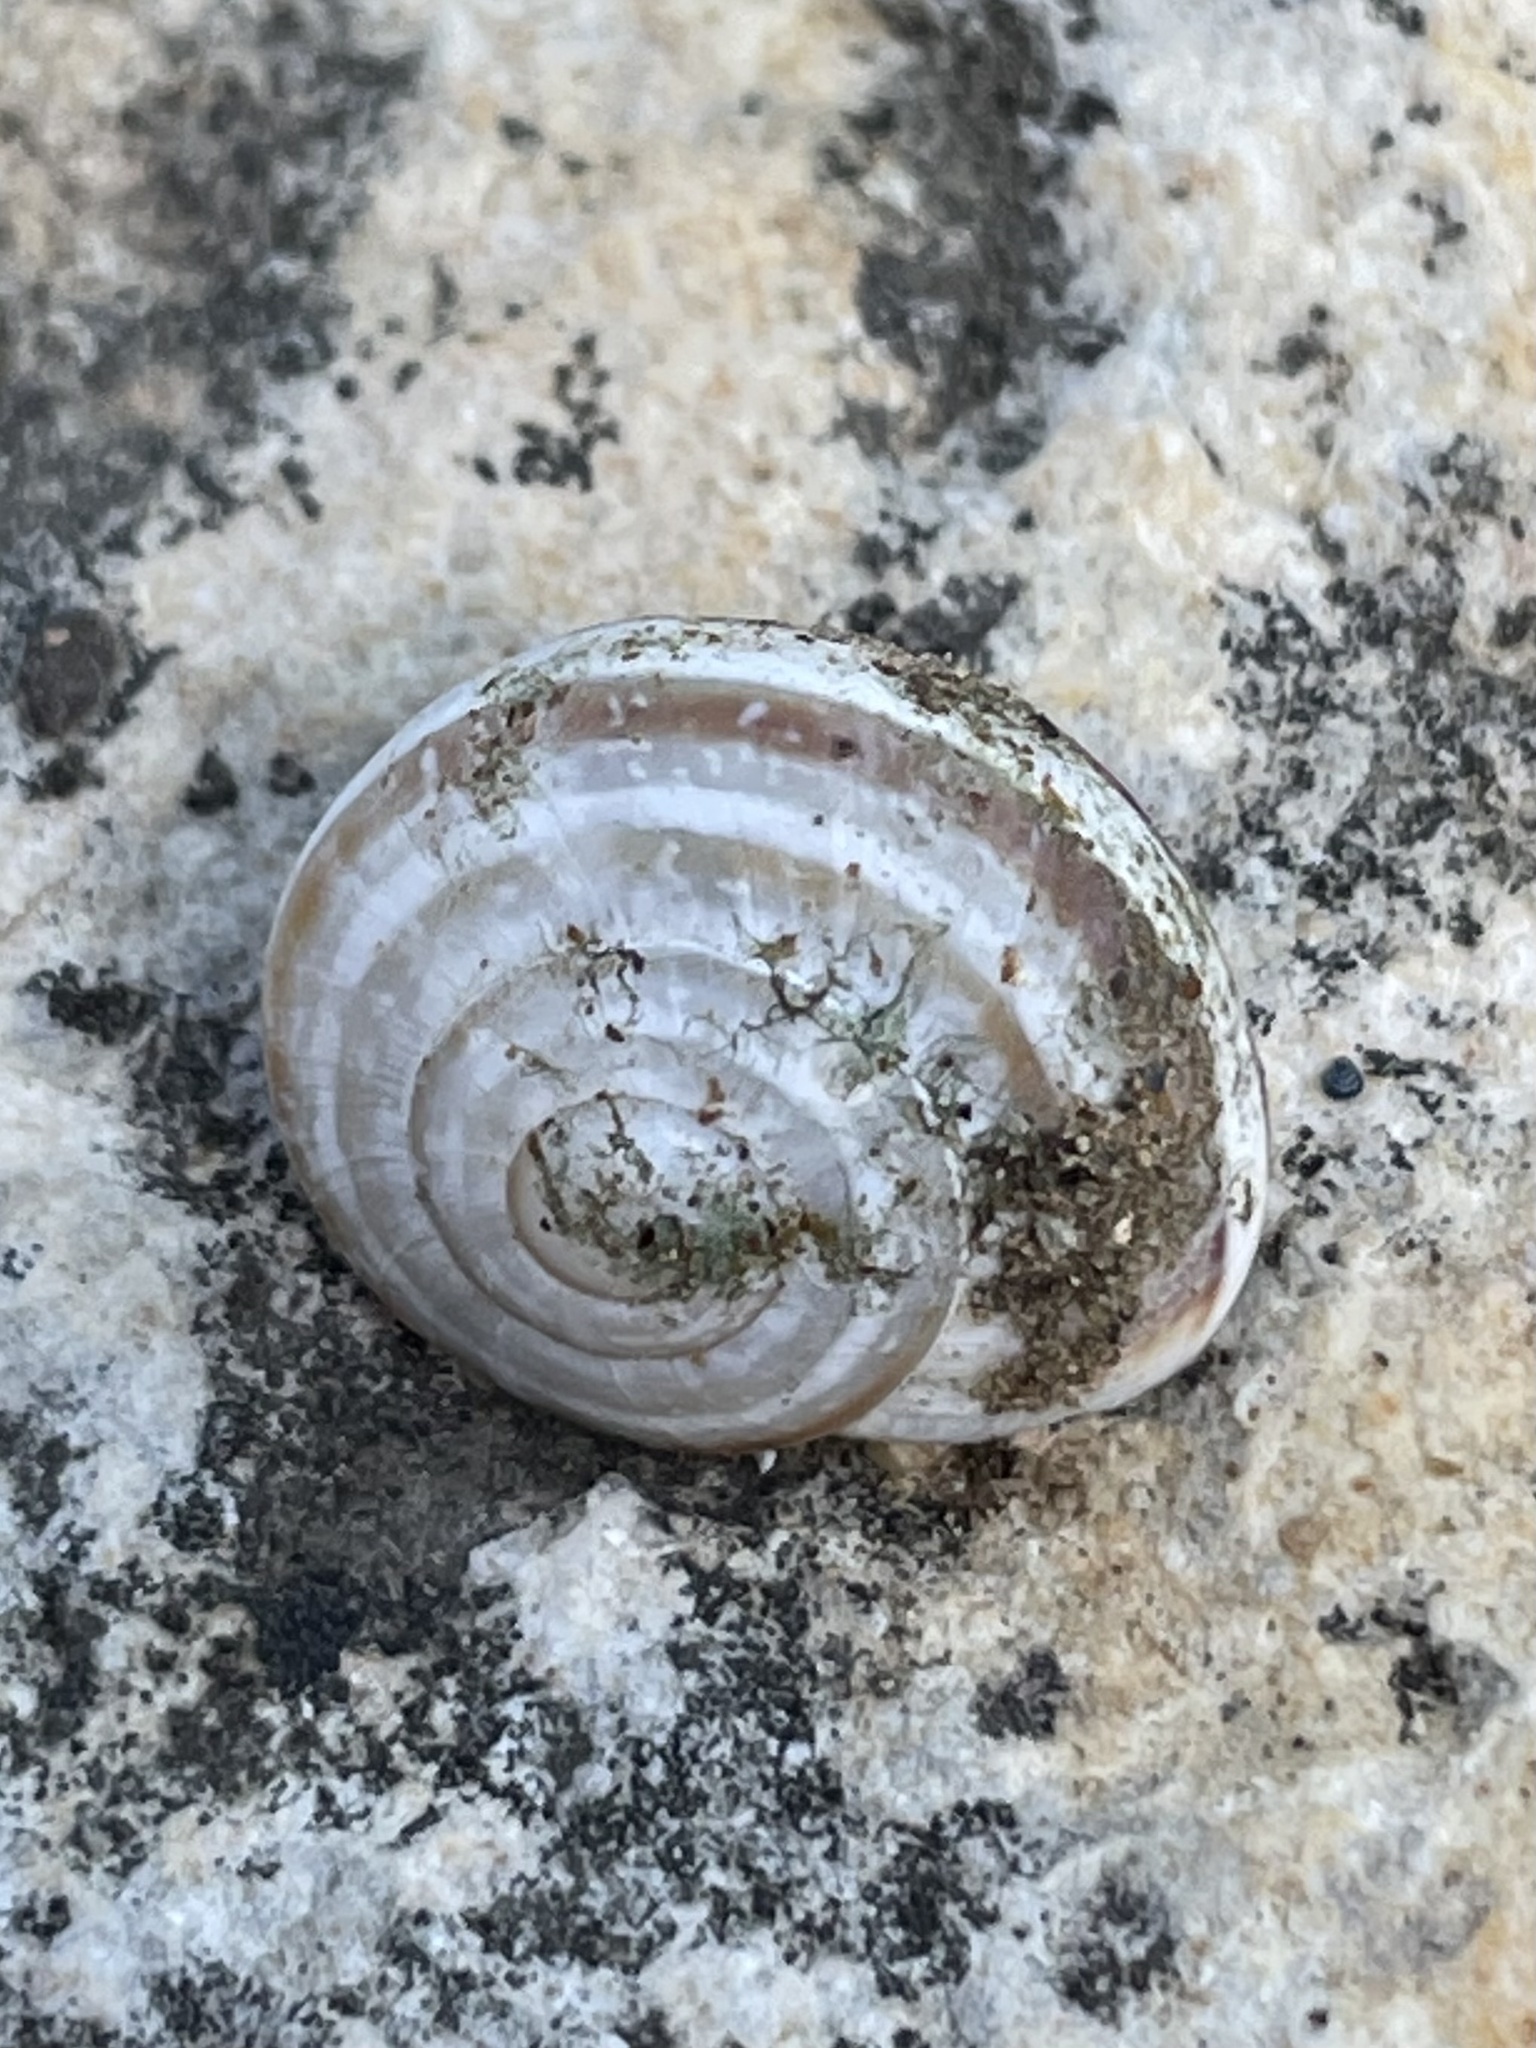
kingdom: Animalia
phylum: Mollusca
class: Gastropoda
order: Stylommatophora
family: Helicidae
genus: Otala
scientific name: Otala lactea
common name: Milk snail
